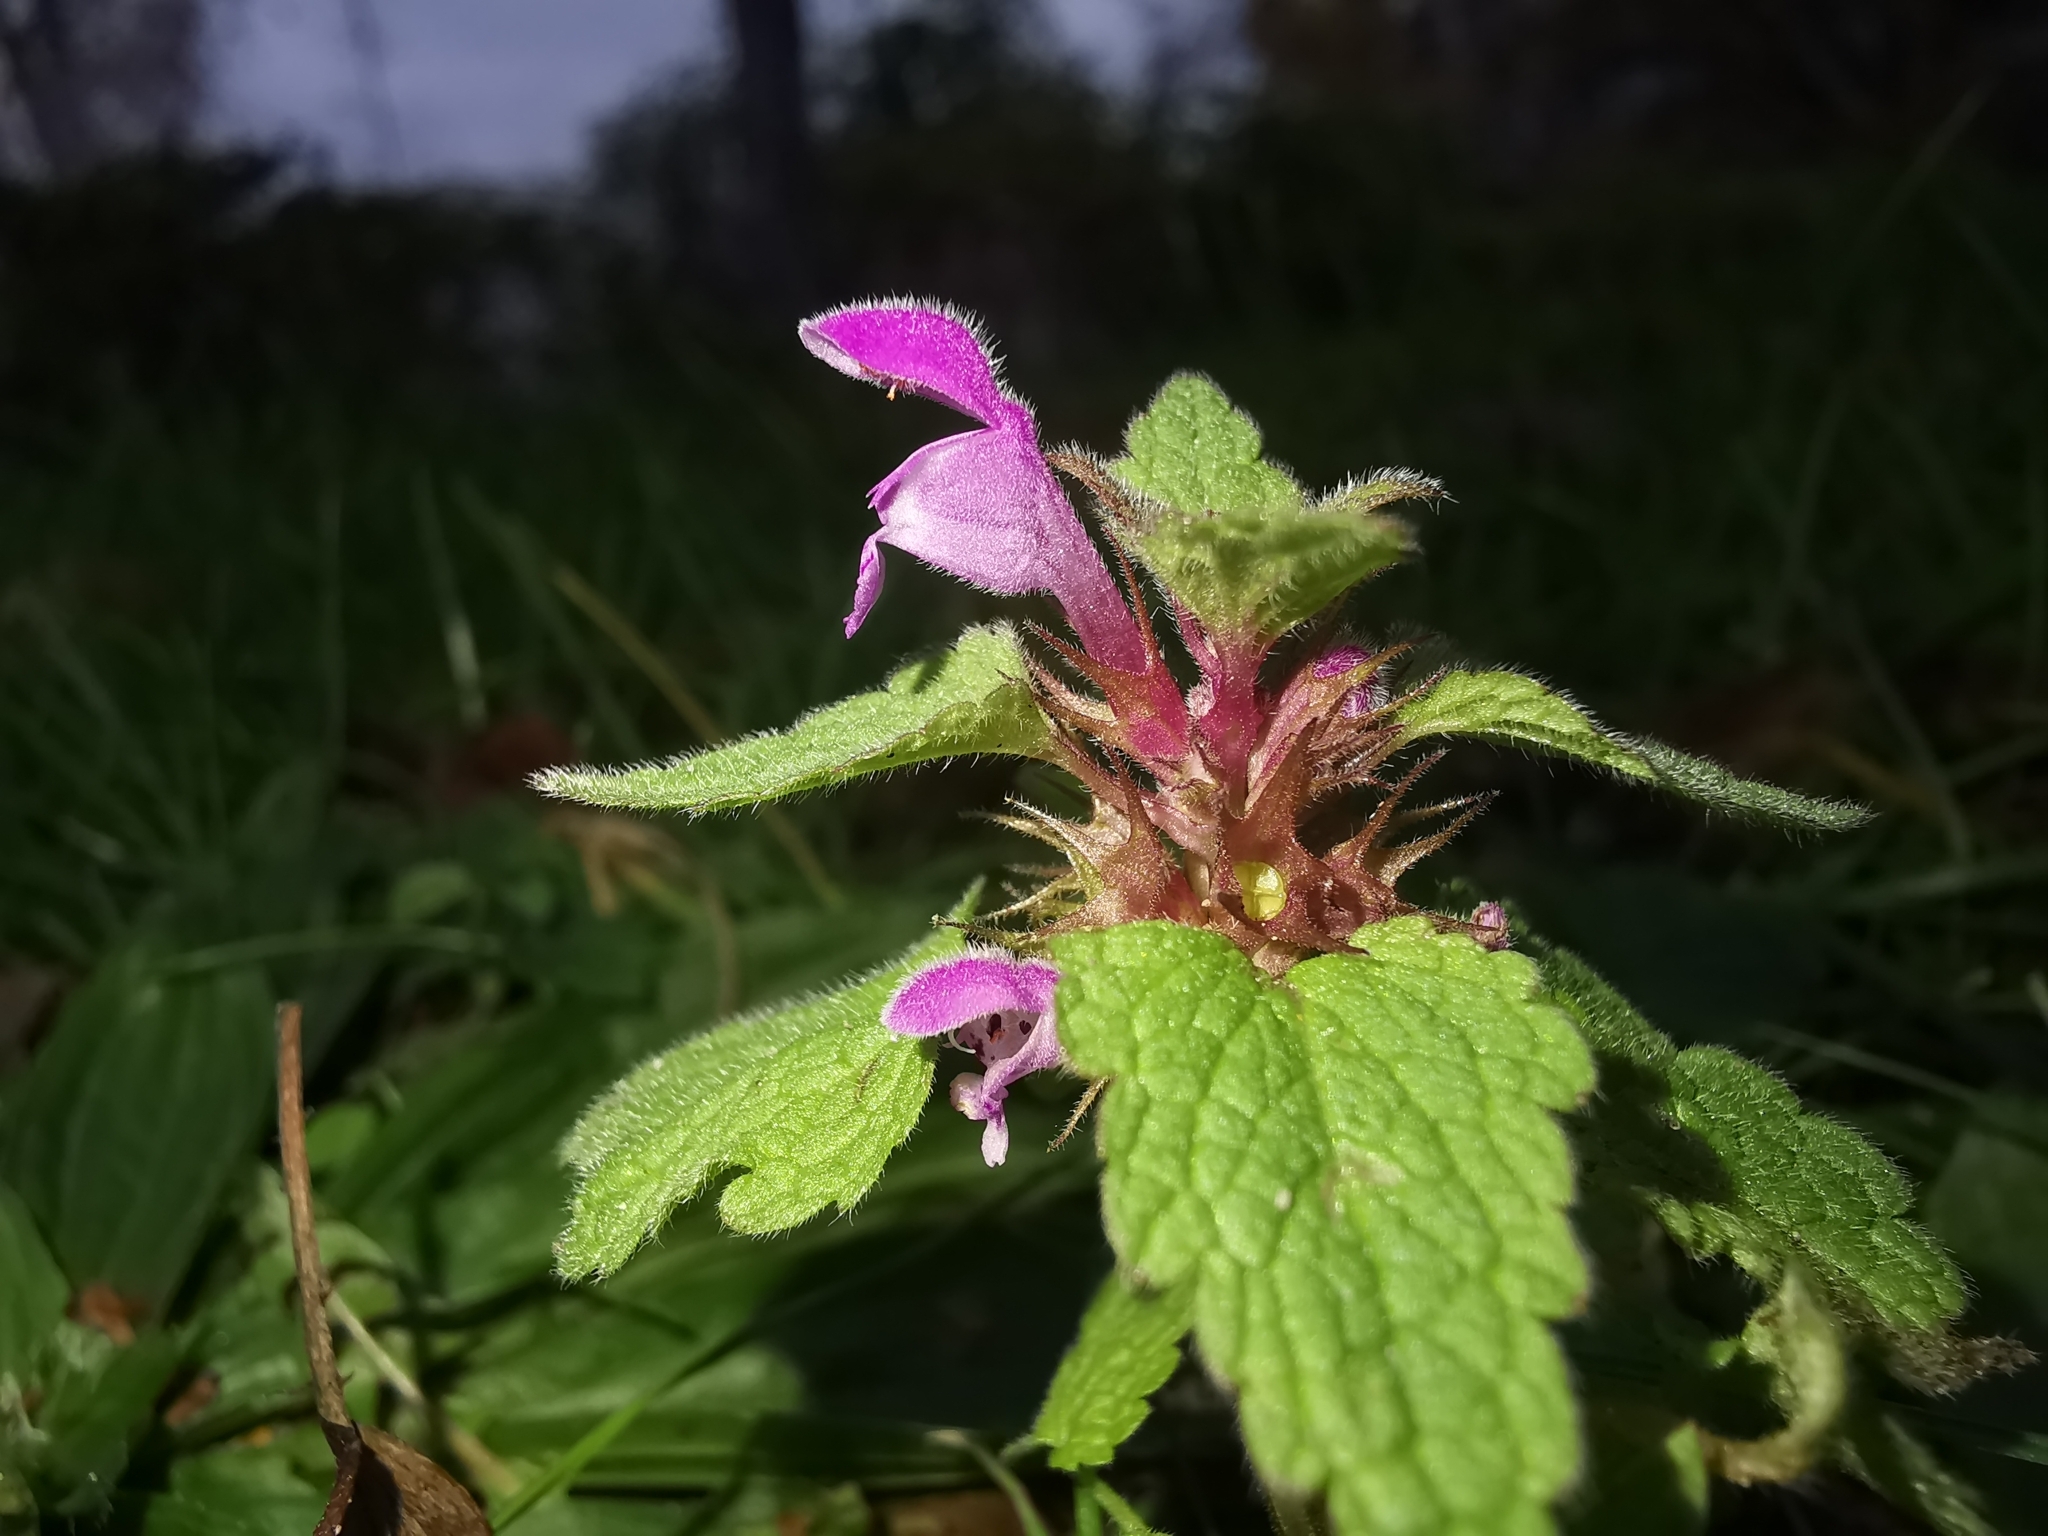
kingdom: Plantae
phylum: Tracheophyta
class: Magnoliopsida
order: Lamiales
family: Lamiaceae
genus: Lamium
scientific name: Lamium purpureum
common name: Red dead-nettle
